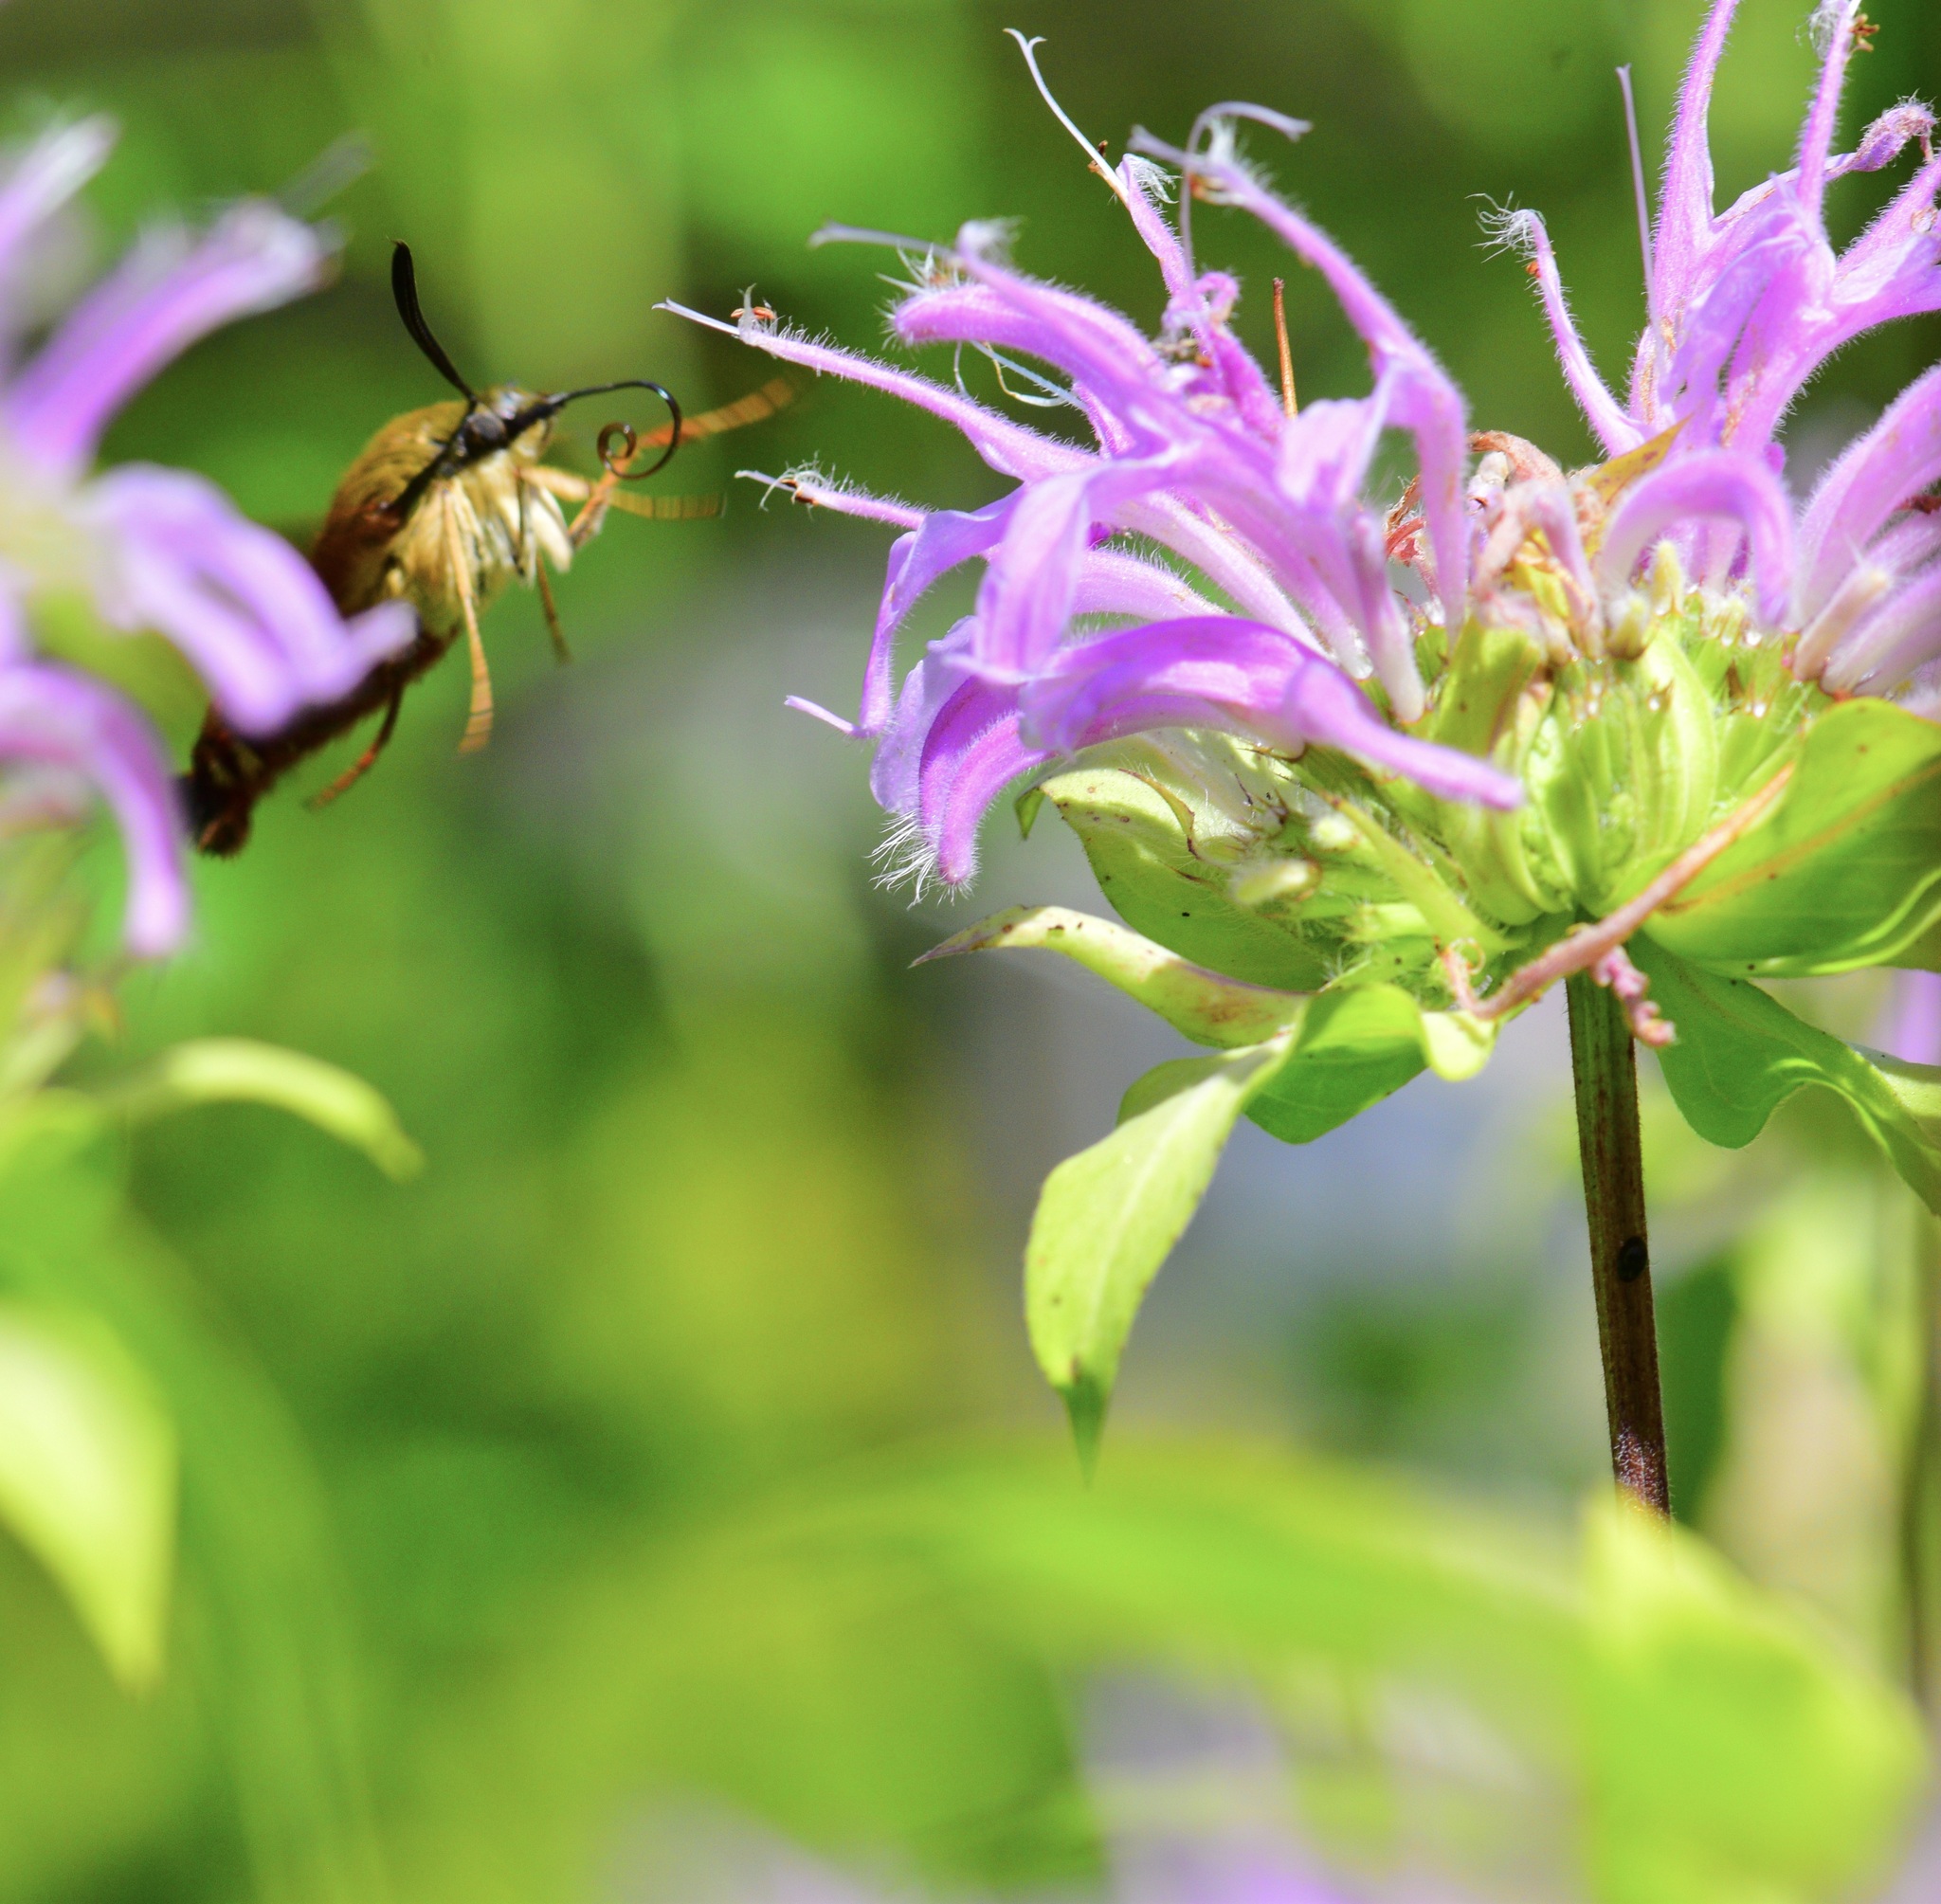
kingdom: Animalia
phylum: Arthropoda
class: Insecta
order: Lepidoptera
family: Sphingidae
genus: Hemaris
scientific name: Hemaris thysbe
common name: Common clear-wing
